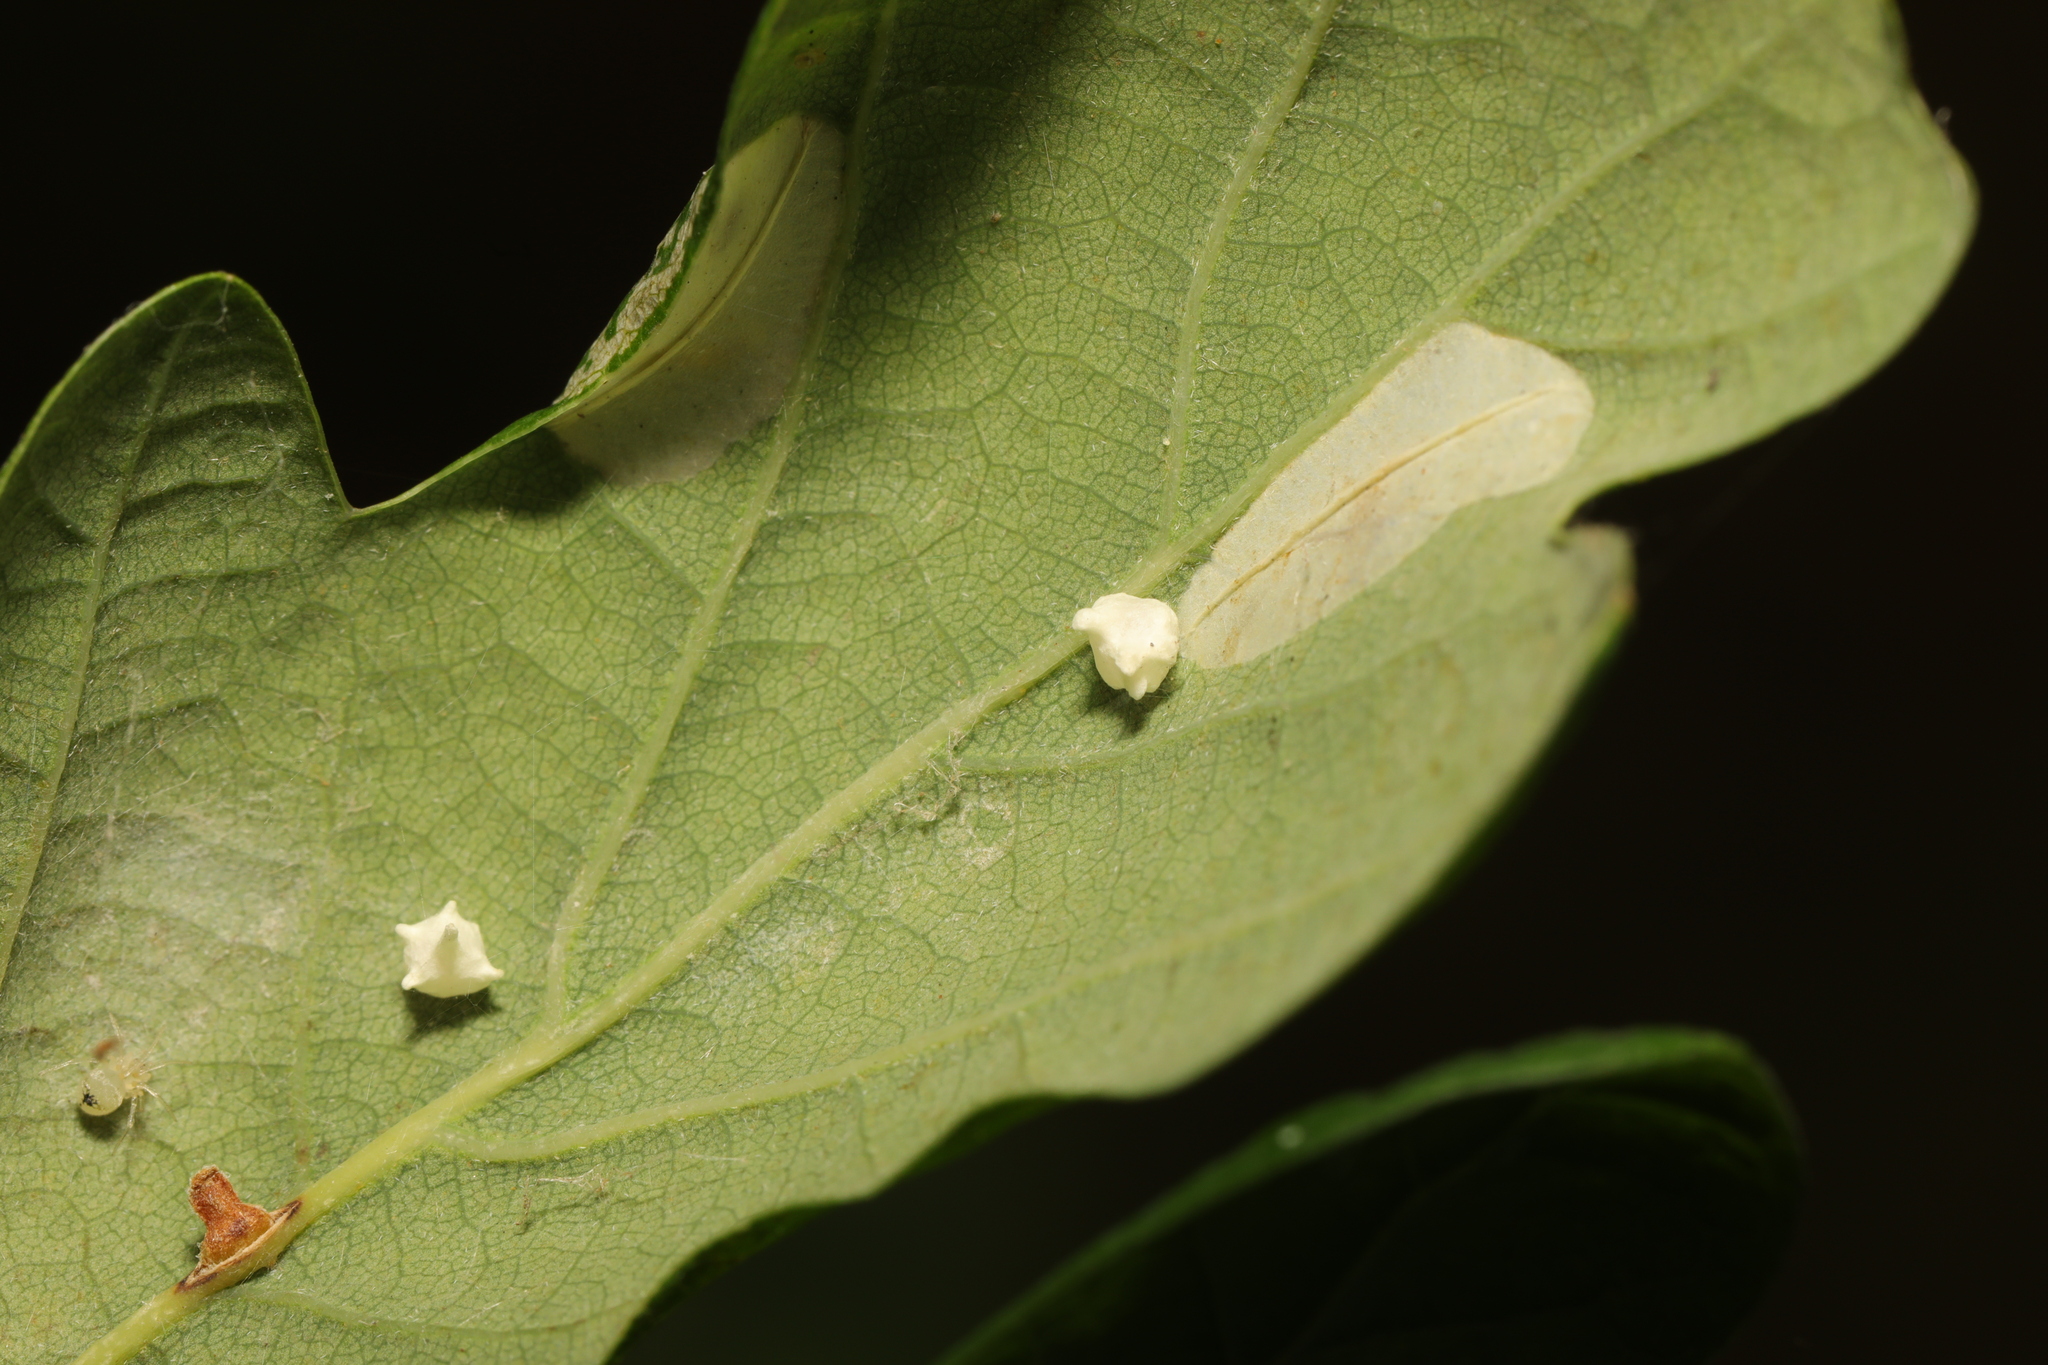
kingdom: Animalia
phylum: Arthropoda
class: Arachnida
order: Araneae
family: Theridiidae
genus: Paidiscura
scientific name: Paidiscura pallens
